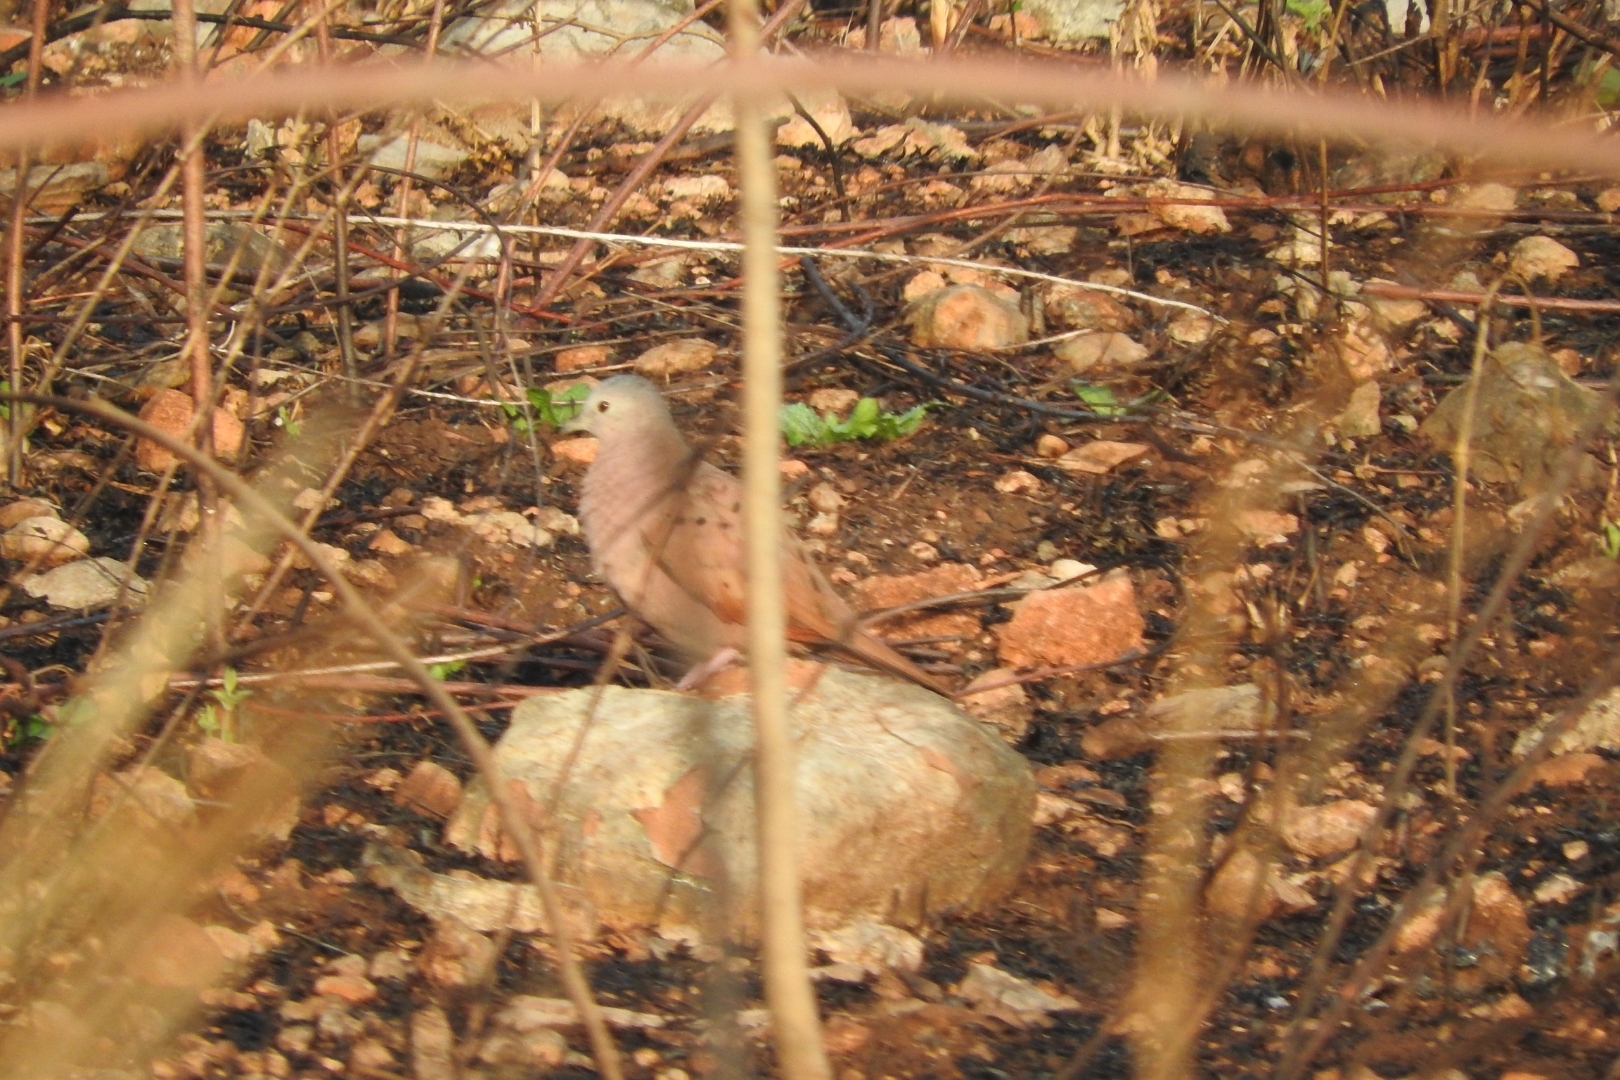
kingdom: Animalia
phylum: Chordata
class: Aves
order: Columbiformes
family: Columbidae
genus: Columbina
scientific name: Columbina talpacoti
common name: Ruddy ground dove
